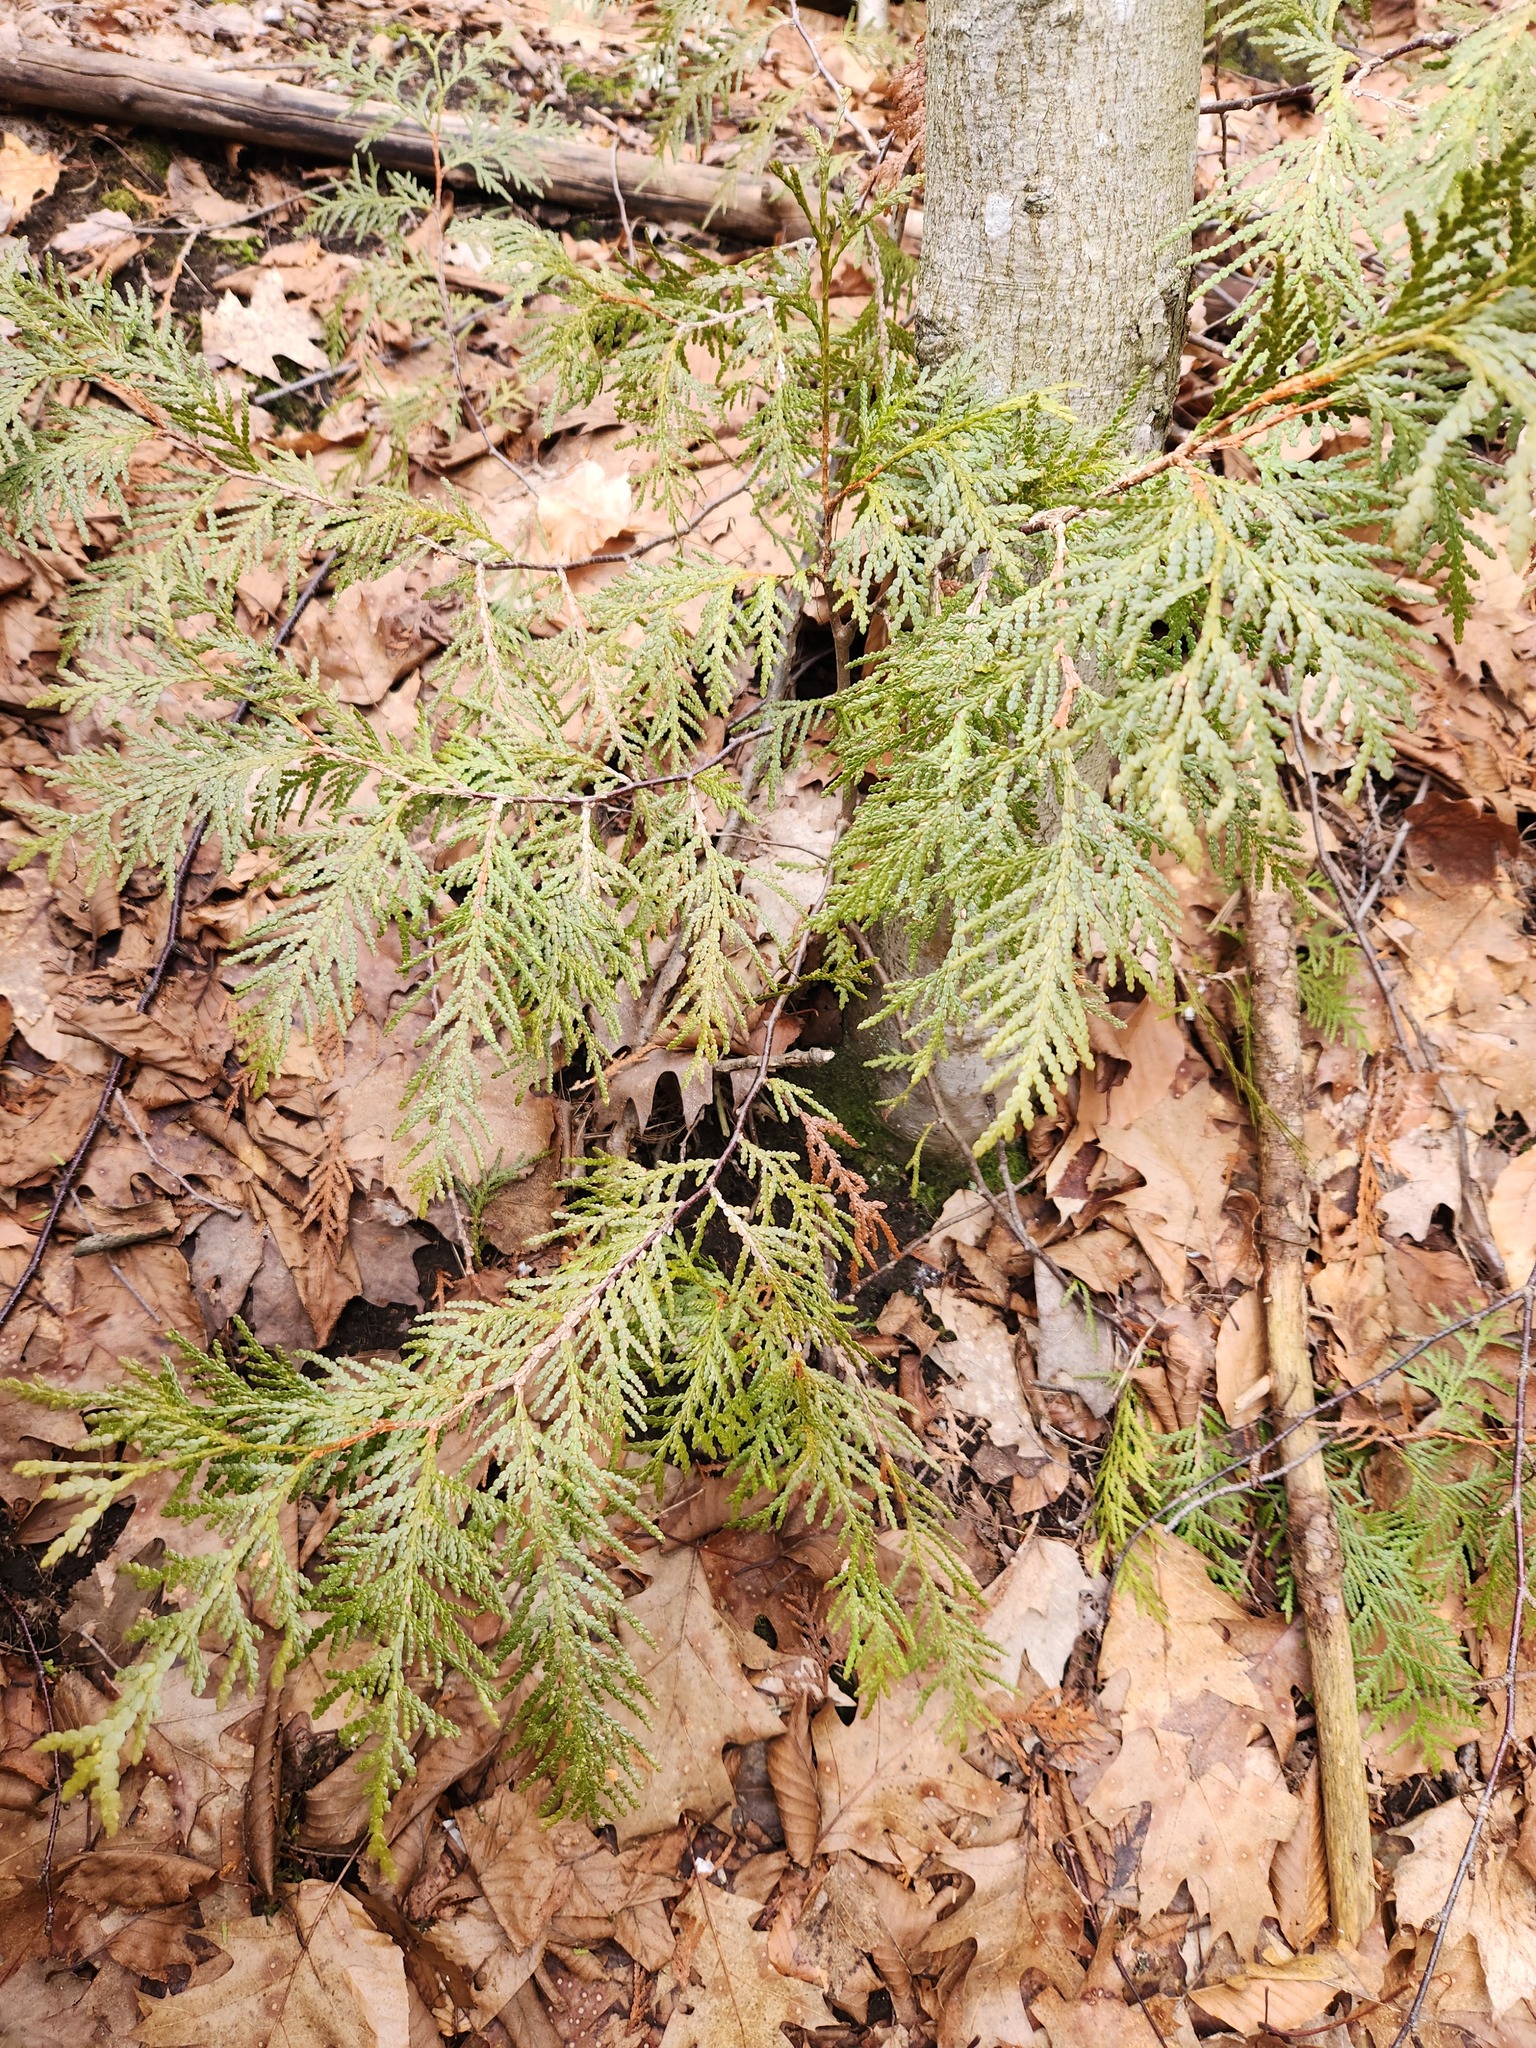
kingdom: Plantae
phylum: Tracheophyta
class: Pinopsida
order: Pinales
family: Cupressaceae
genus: Thuja
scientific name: Thuja occidentalis
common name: Northern white-cedar
